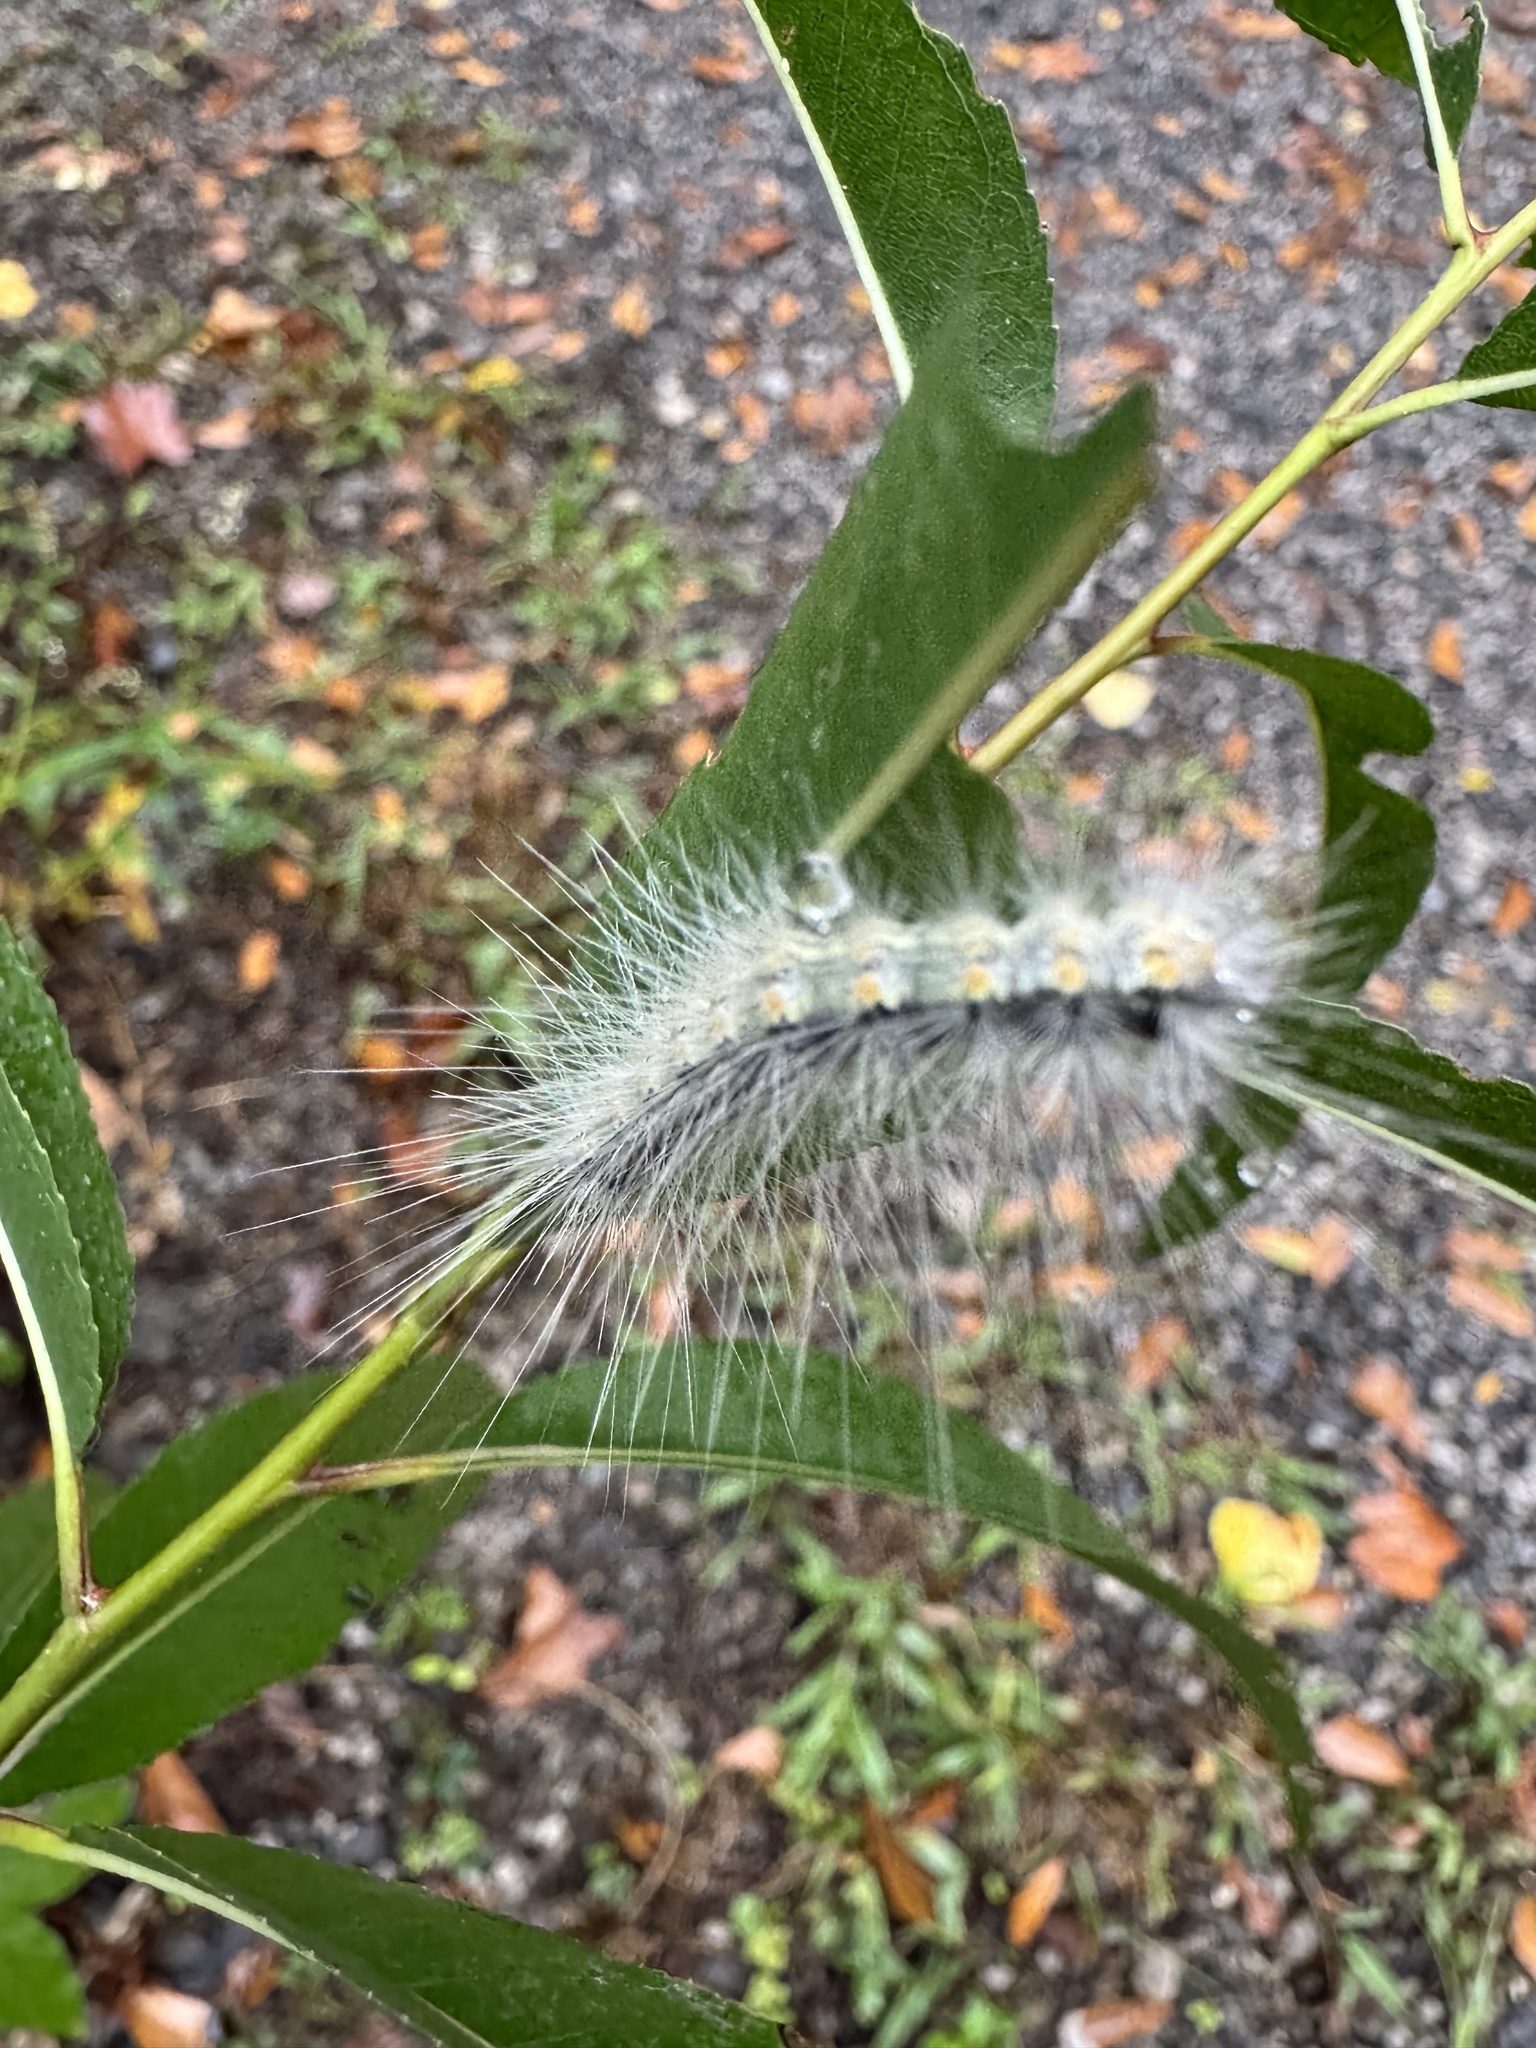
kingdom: Animalia
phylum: Arthropoda
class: Insecta
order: Lepidoptera
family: Erebidae
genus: Hyphantria
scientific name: Hyphantria cunea
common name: American white moth
